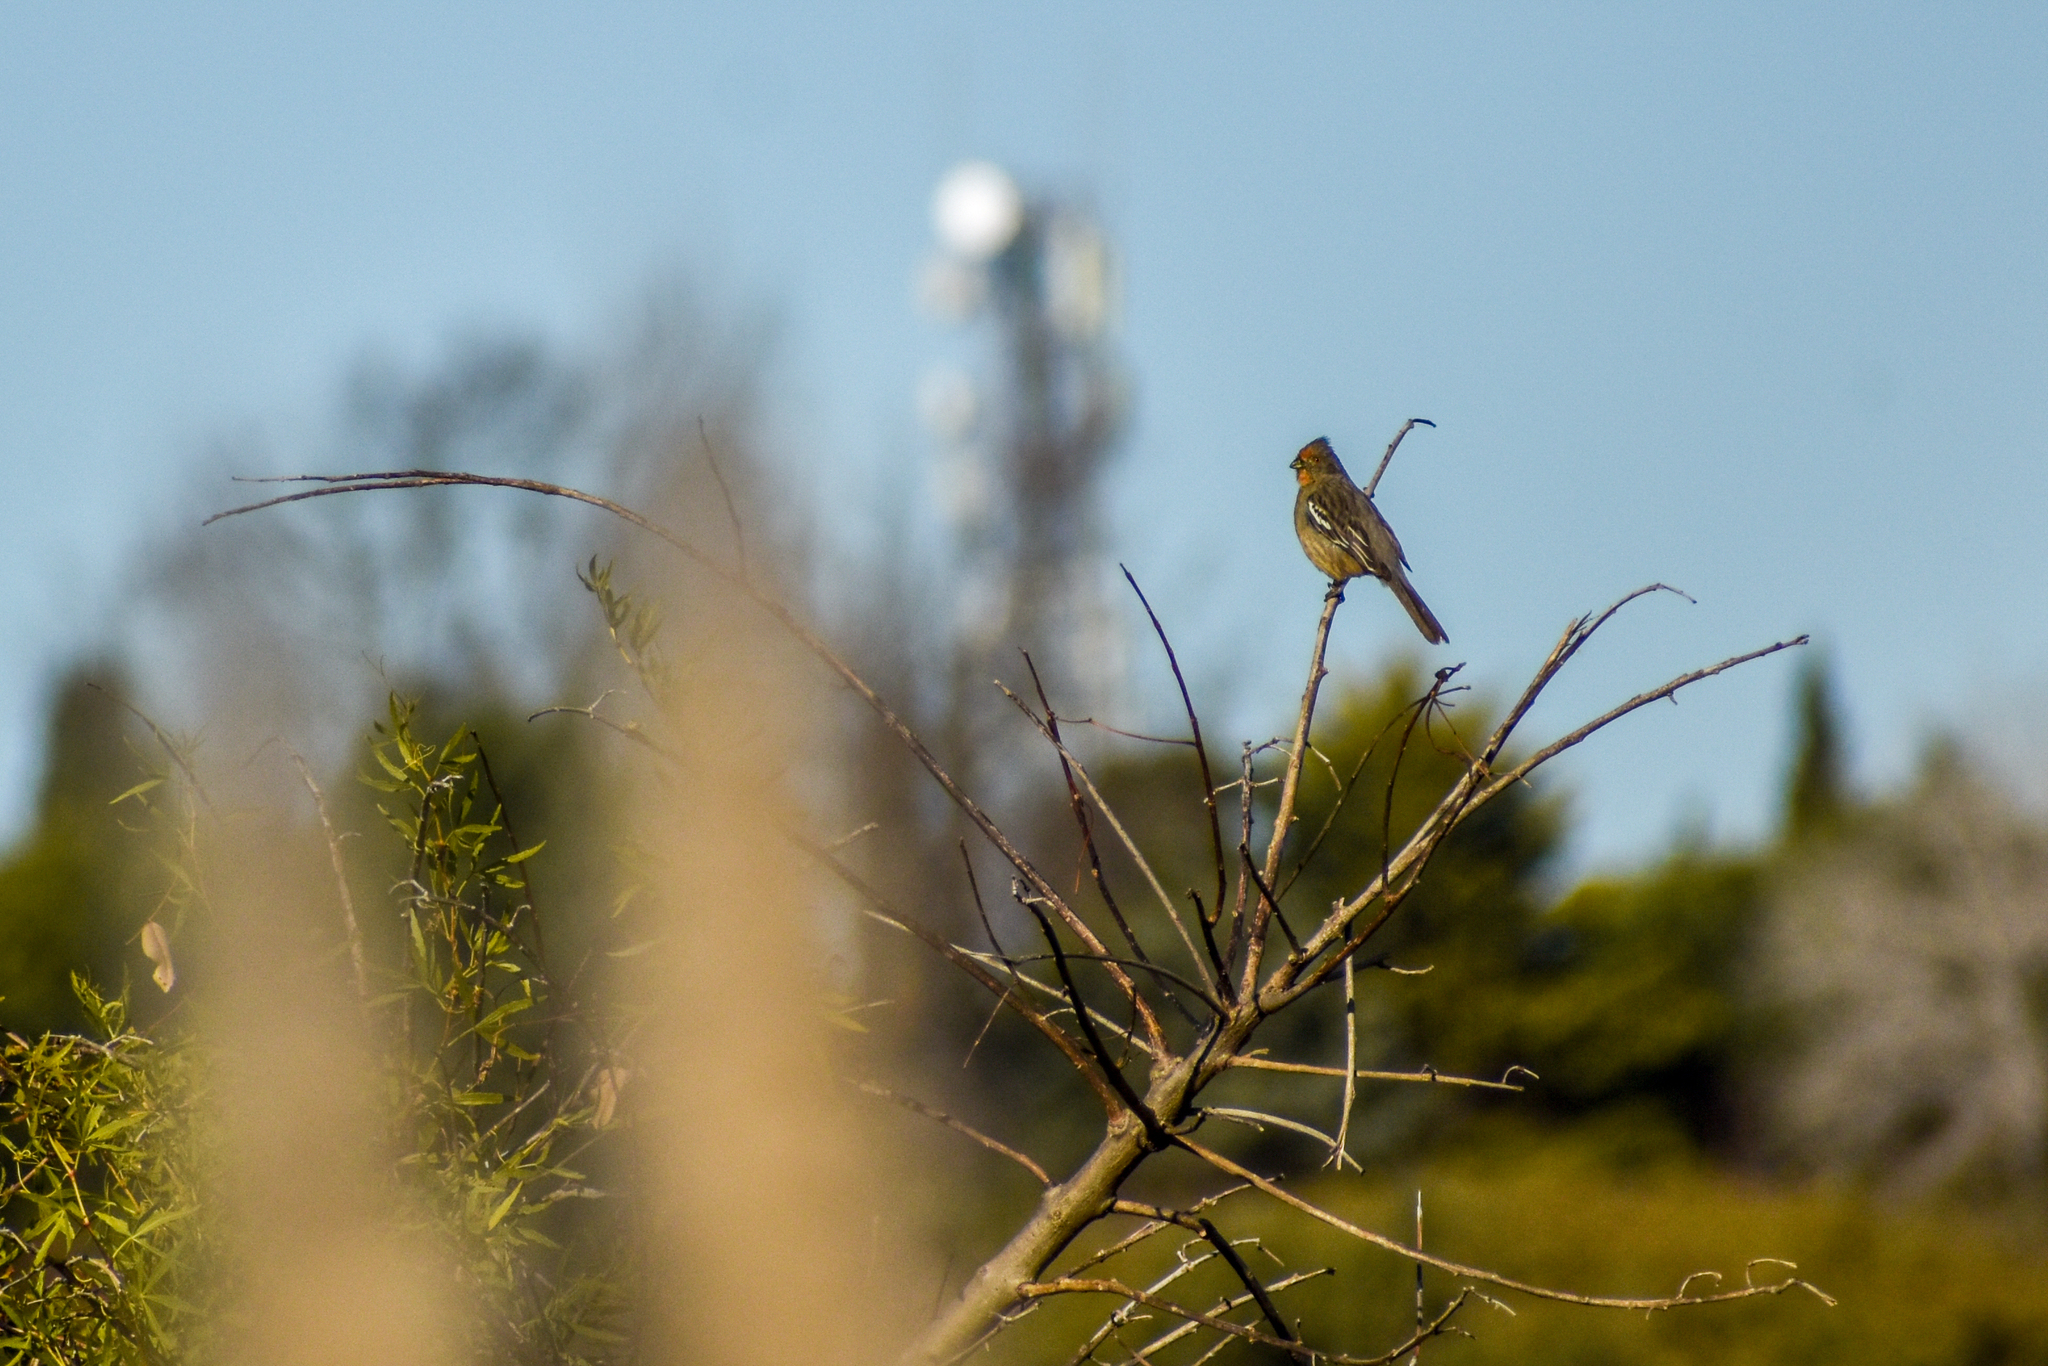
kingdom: Animalia
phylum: Chordata
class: Aves
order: Passeriformes
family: Cotingidae
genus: Phytotoma
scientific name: Phytotoma rutila
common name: White-tipped plantcutter
